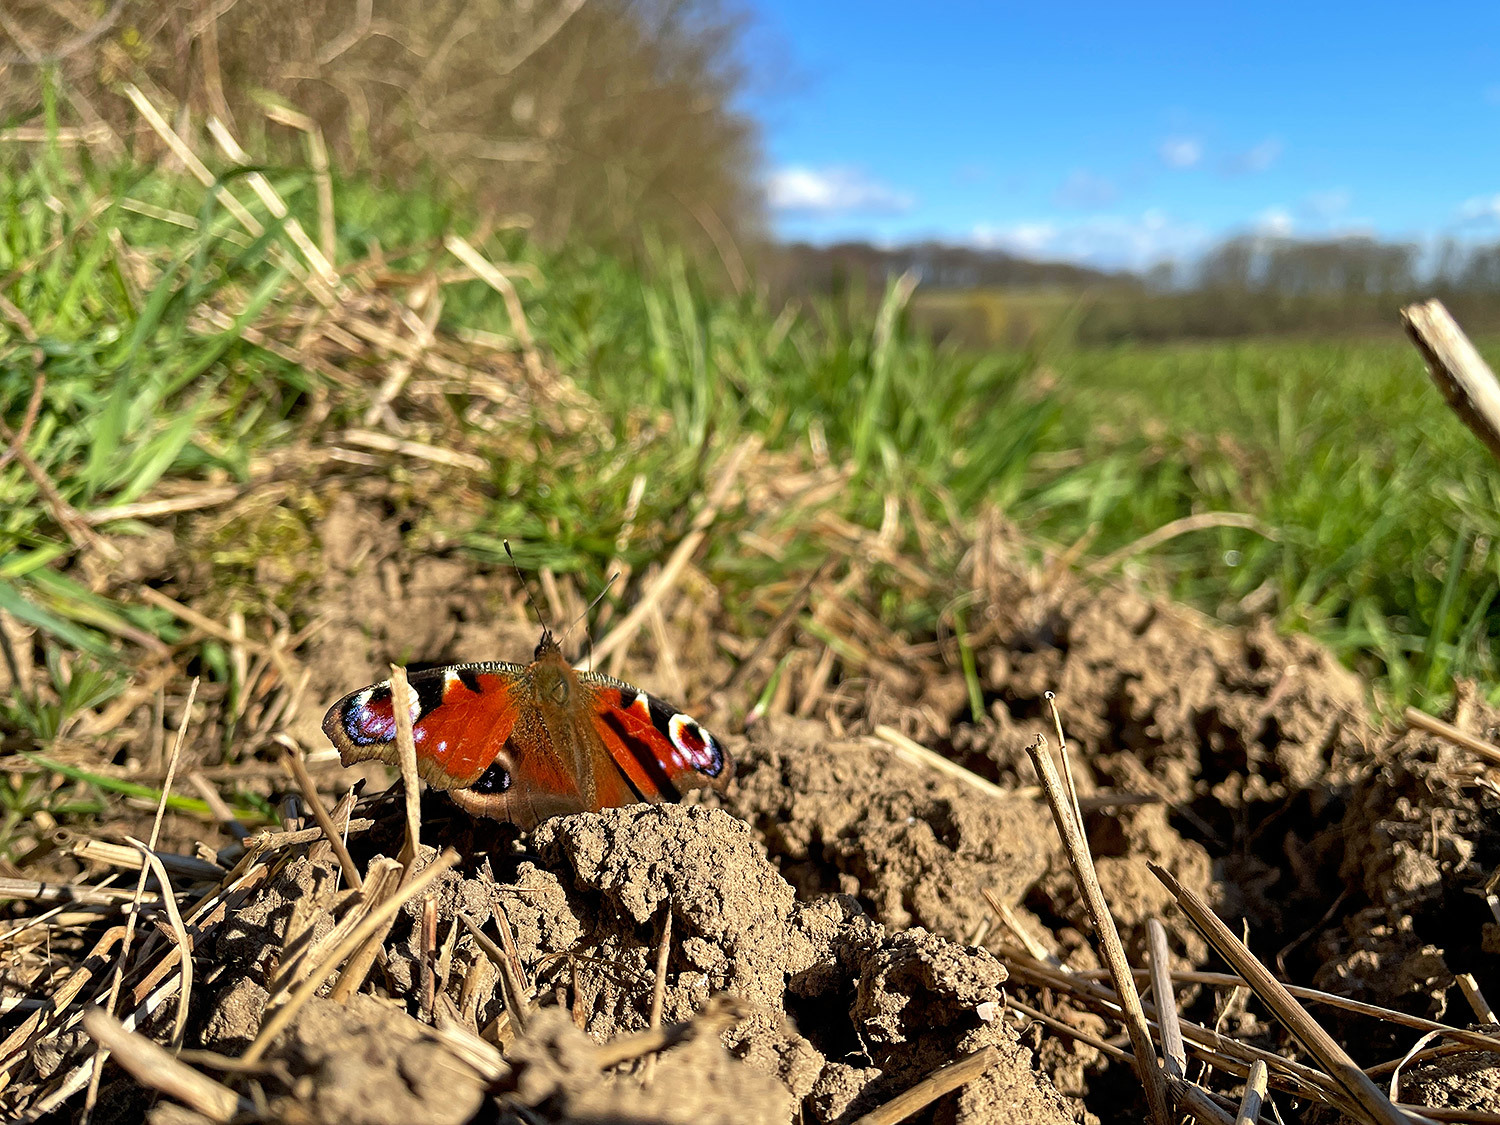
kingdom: Animalia
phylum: Arthropoda
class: Insecta
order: Lepidoptera
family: Nymphalidae
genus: Aglais
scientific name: Aglais io
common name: Peacock
